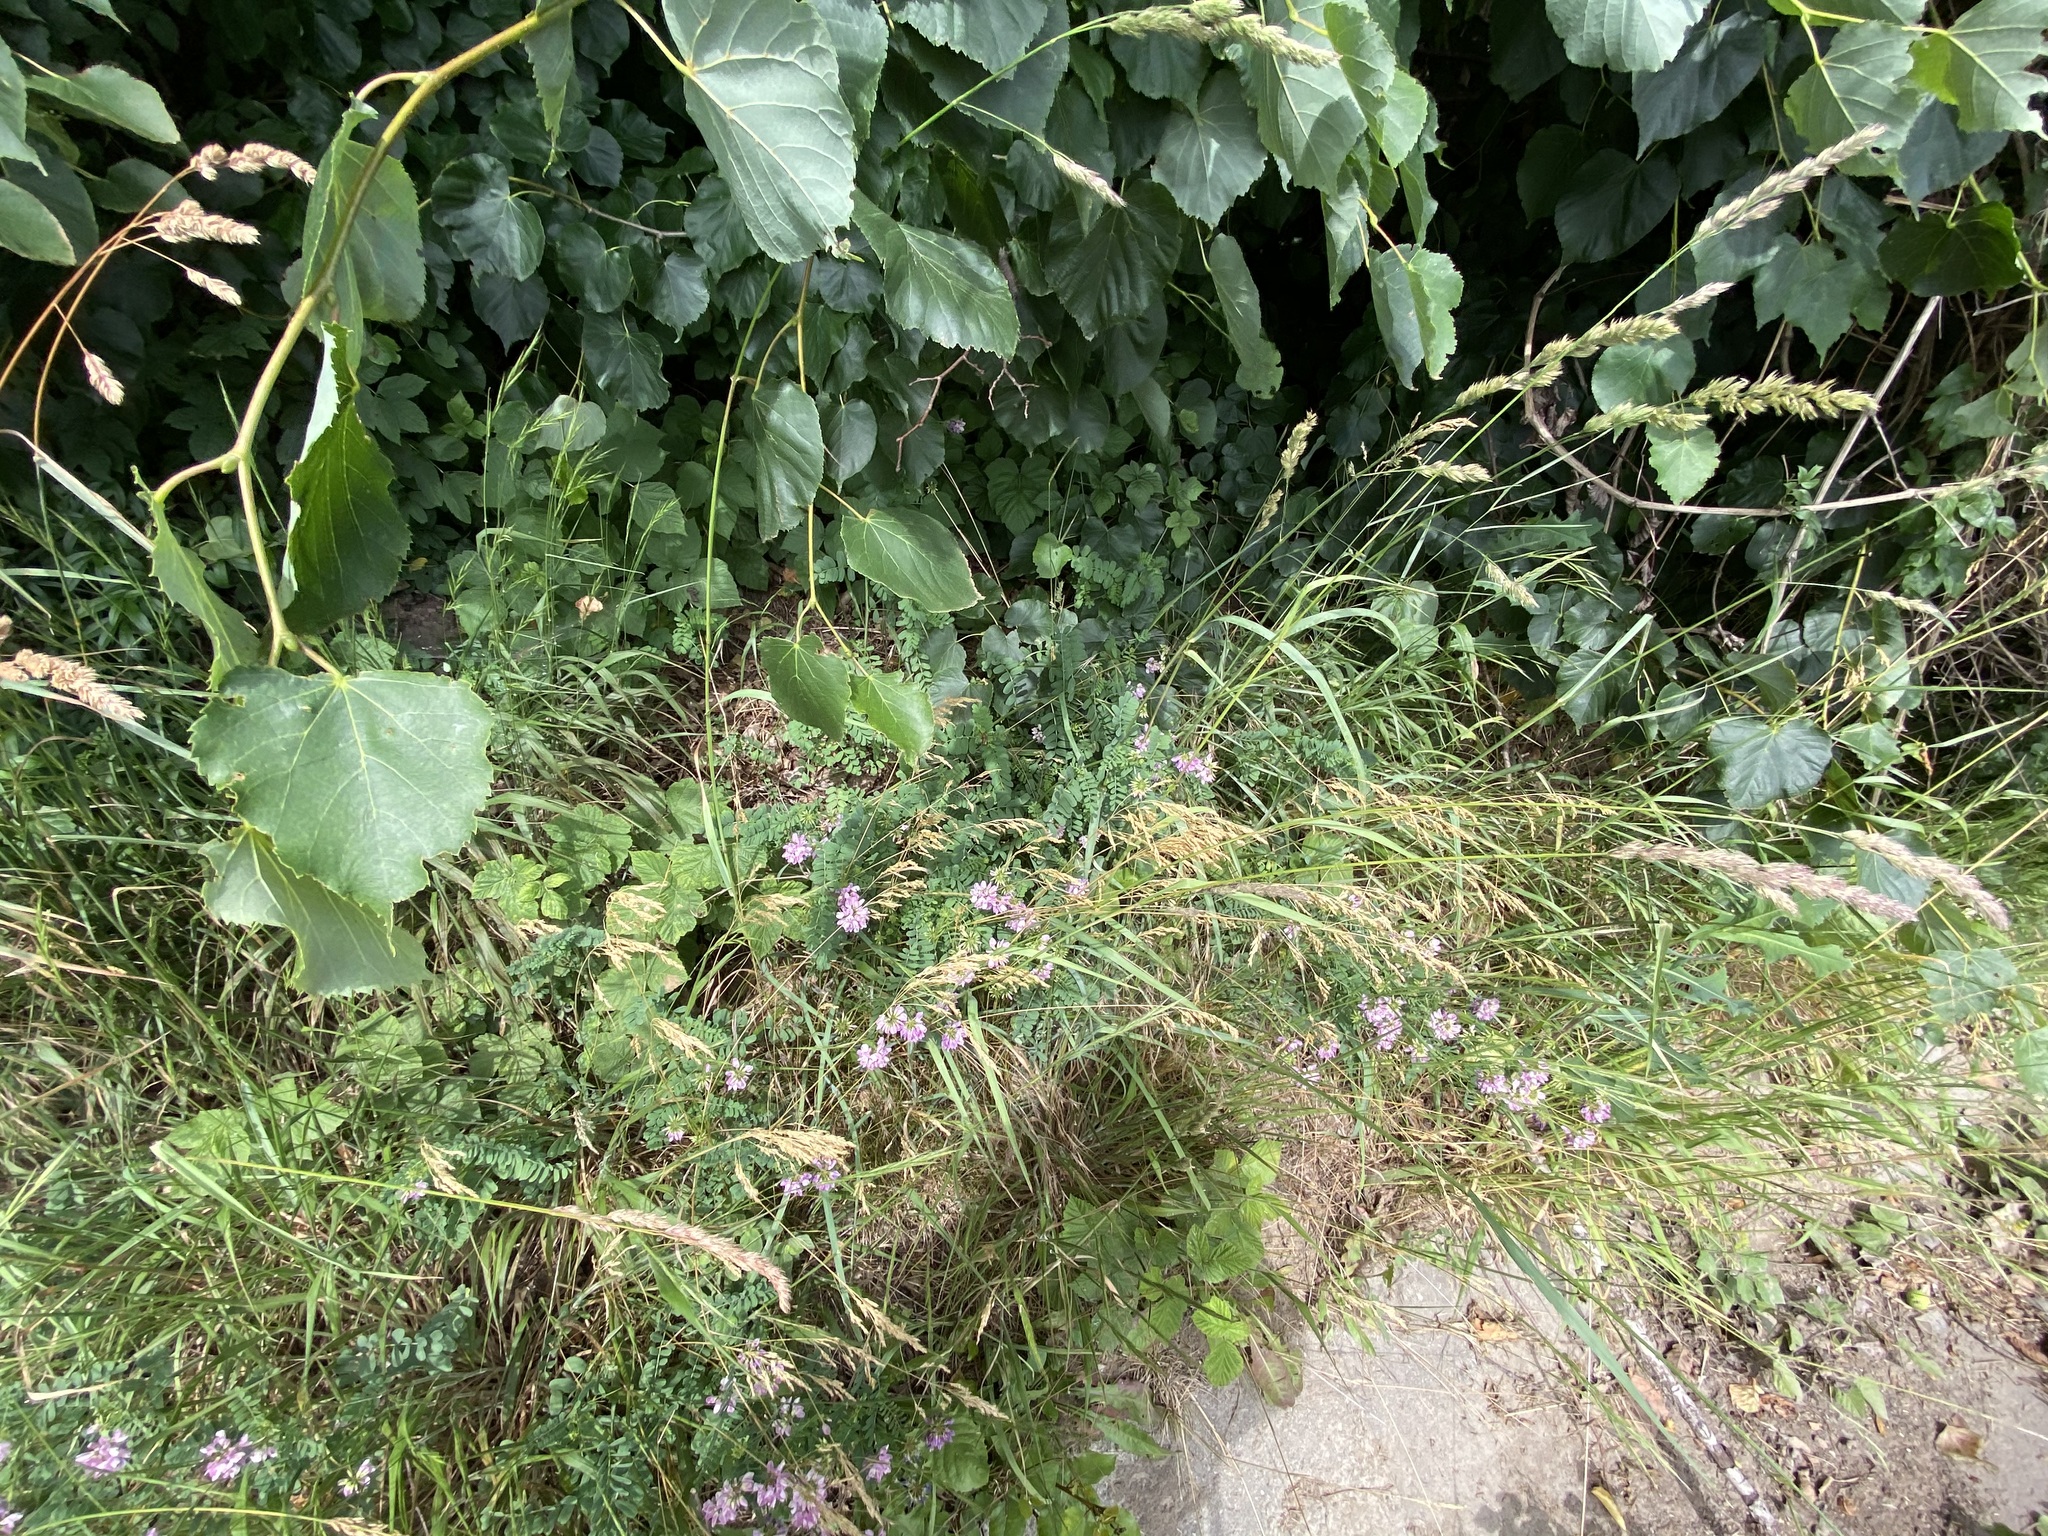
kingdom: Plantae
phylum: Tracheophyta
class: Magnoliopsida
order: Fabales
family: Fabaceae
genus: Coronilla
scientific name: Coronilla varia
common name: Crownvetch
